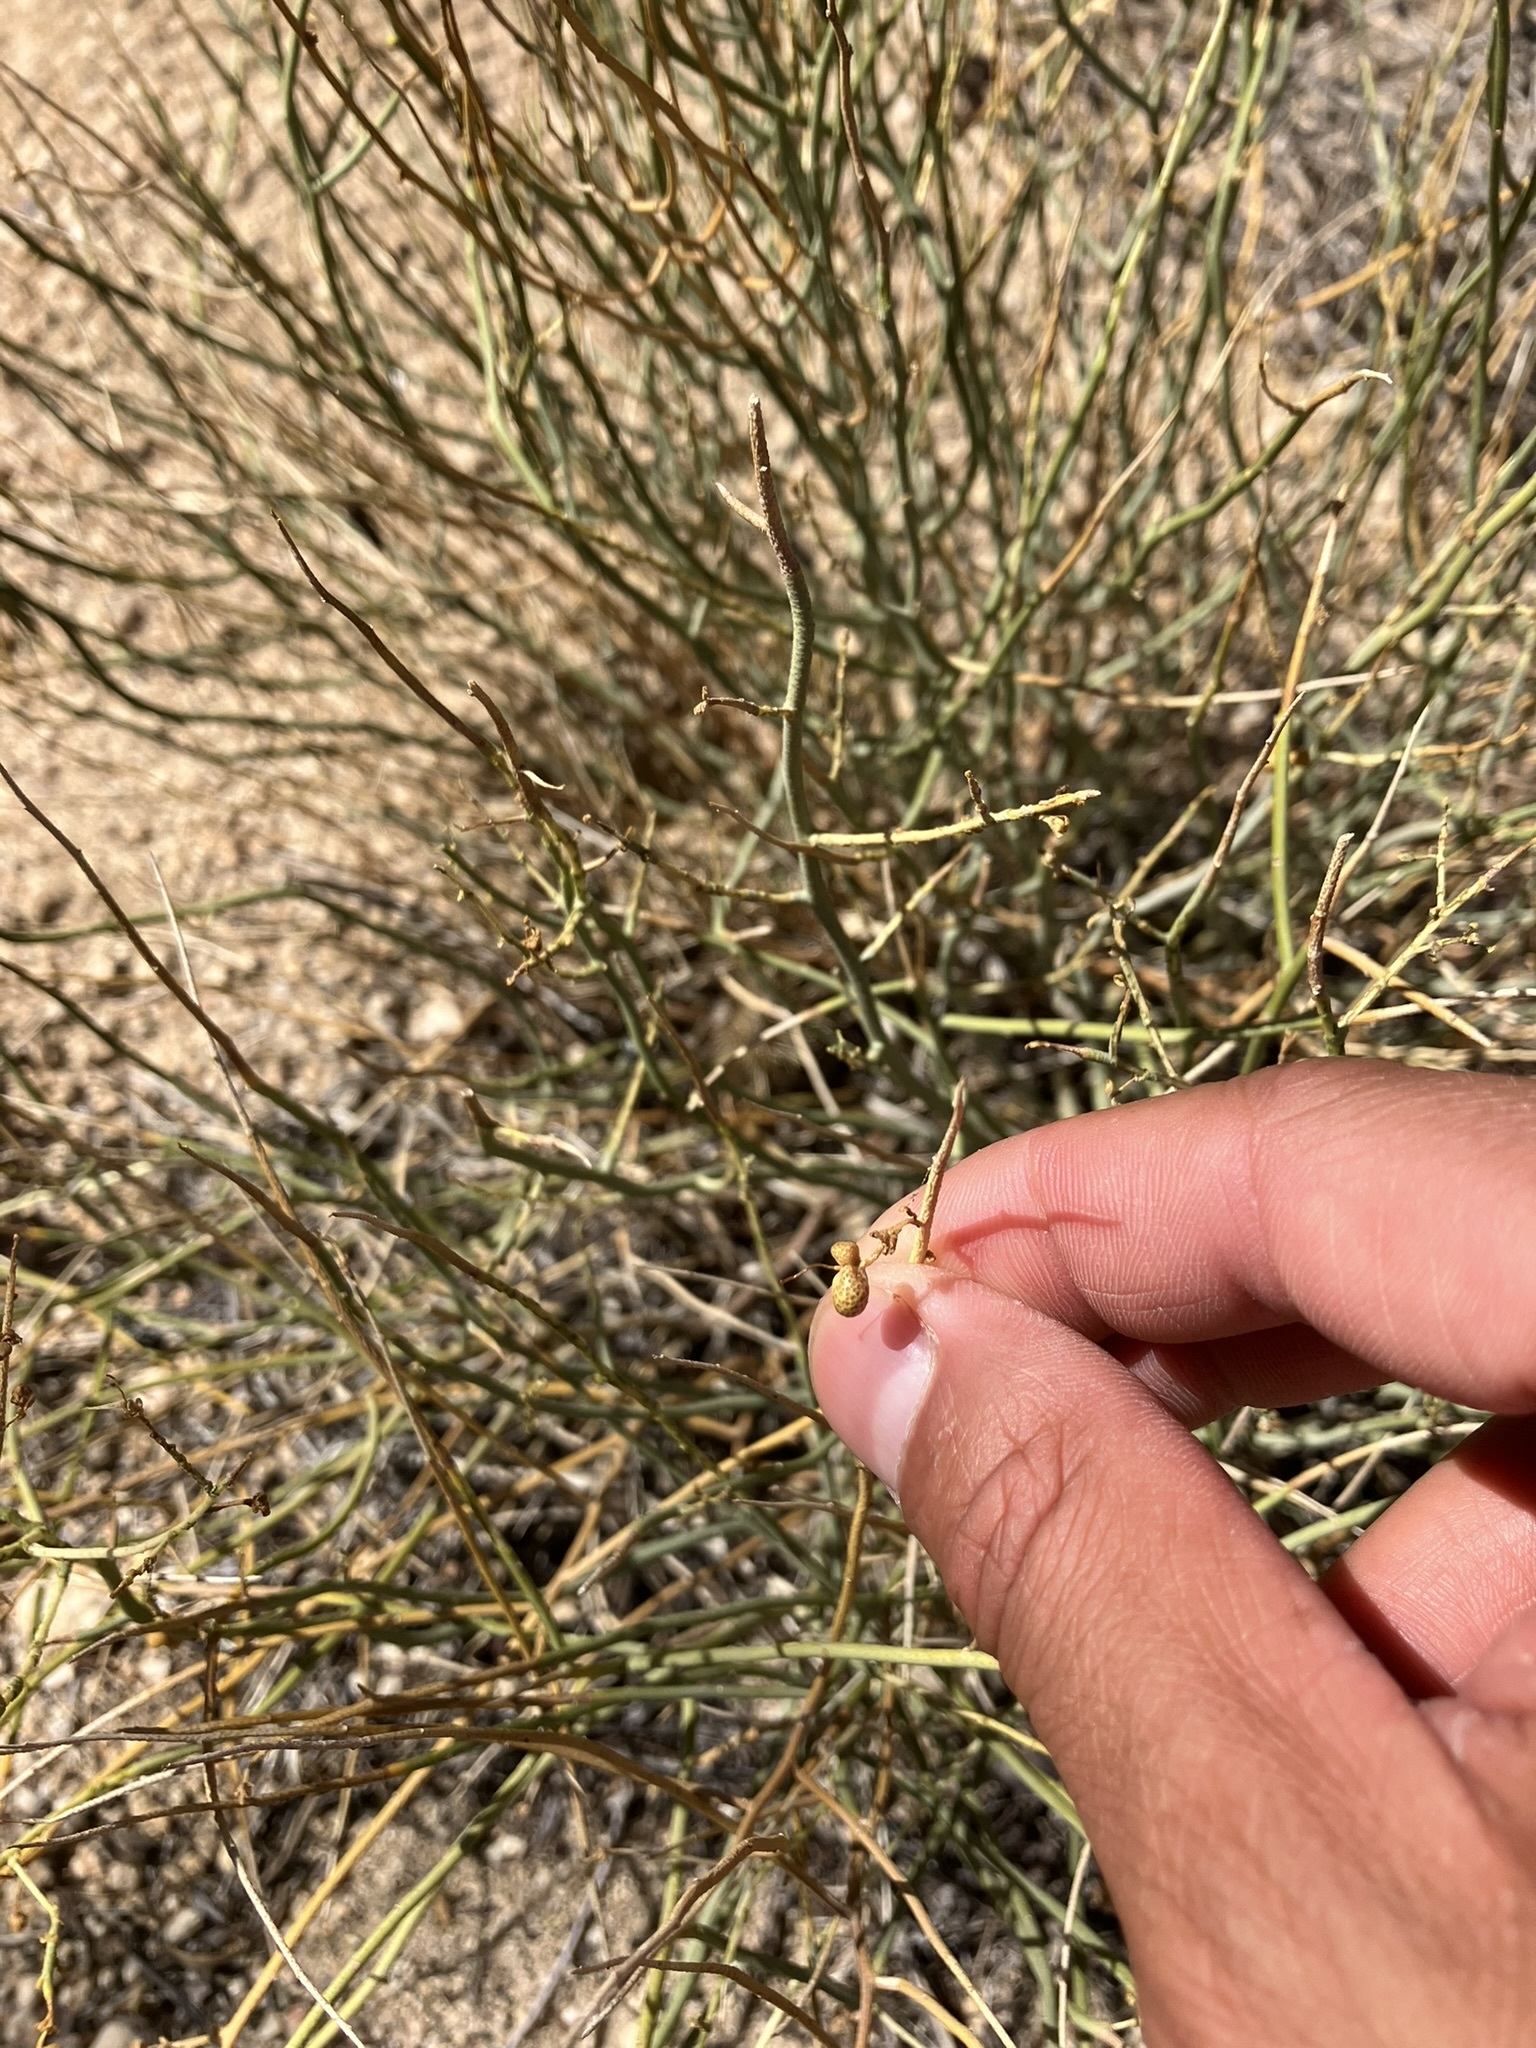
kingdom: Plantae
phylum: Tracheophyta
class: Magnoliopsida
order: Sapindales
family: Rutaceae
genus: Thamnosma
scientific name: Thamnosma montana
